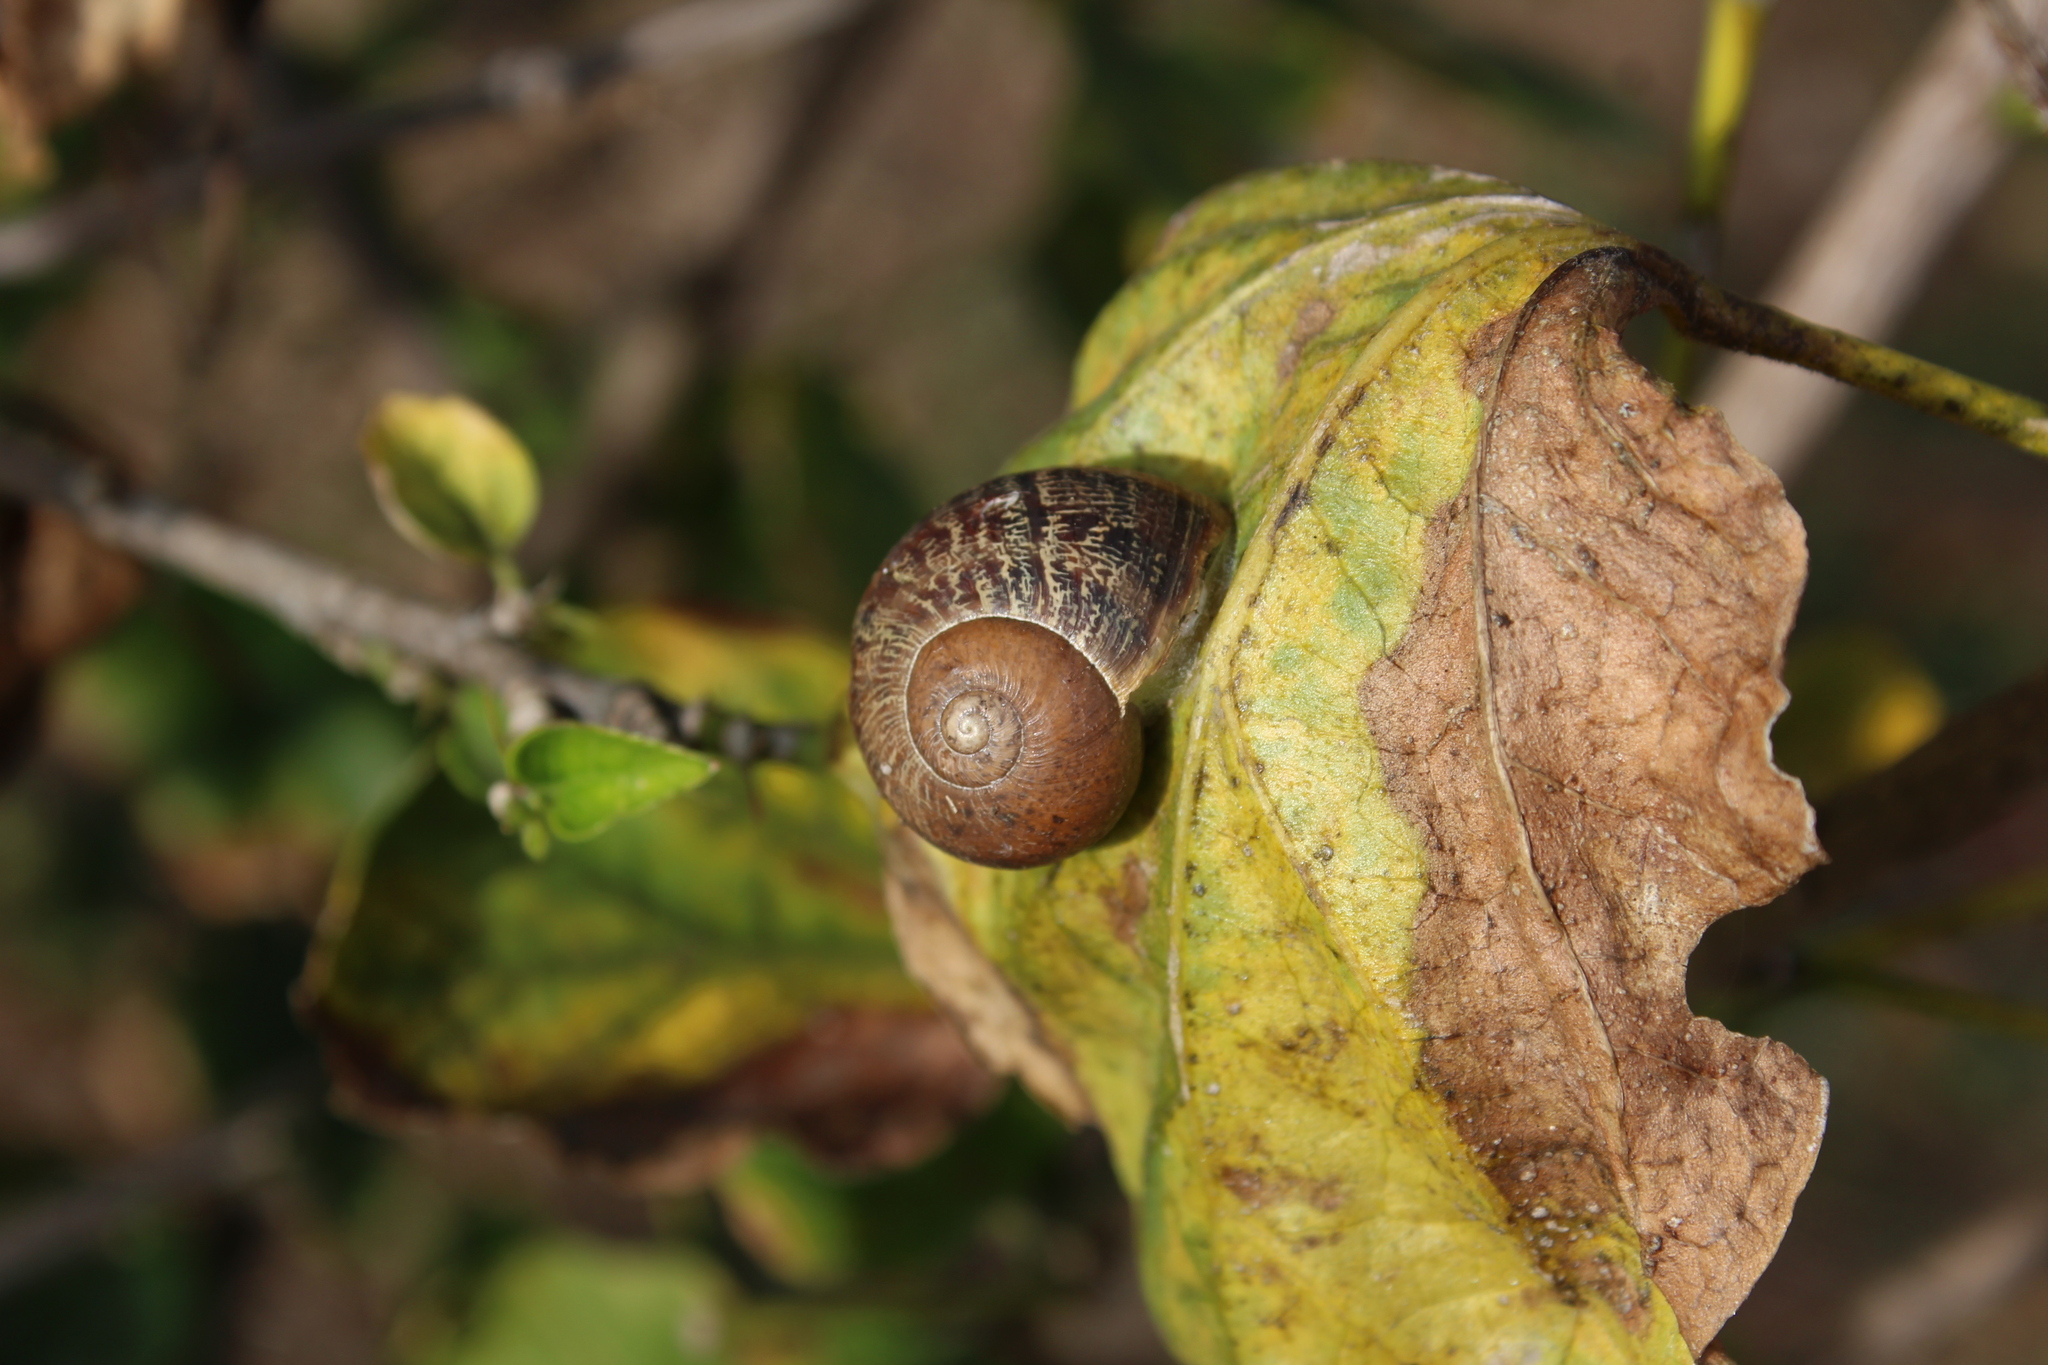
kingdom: Animalia
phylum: Mollusca
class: Gastropoda
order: Stylommatophora
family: Helicidae
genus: Cornu
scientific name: Cornu aspersum
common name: Brown garden snail
